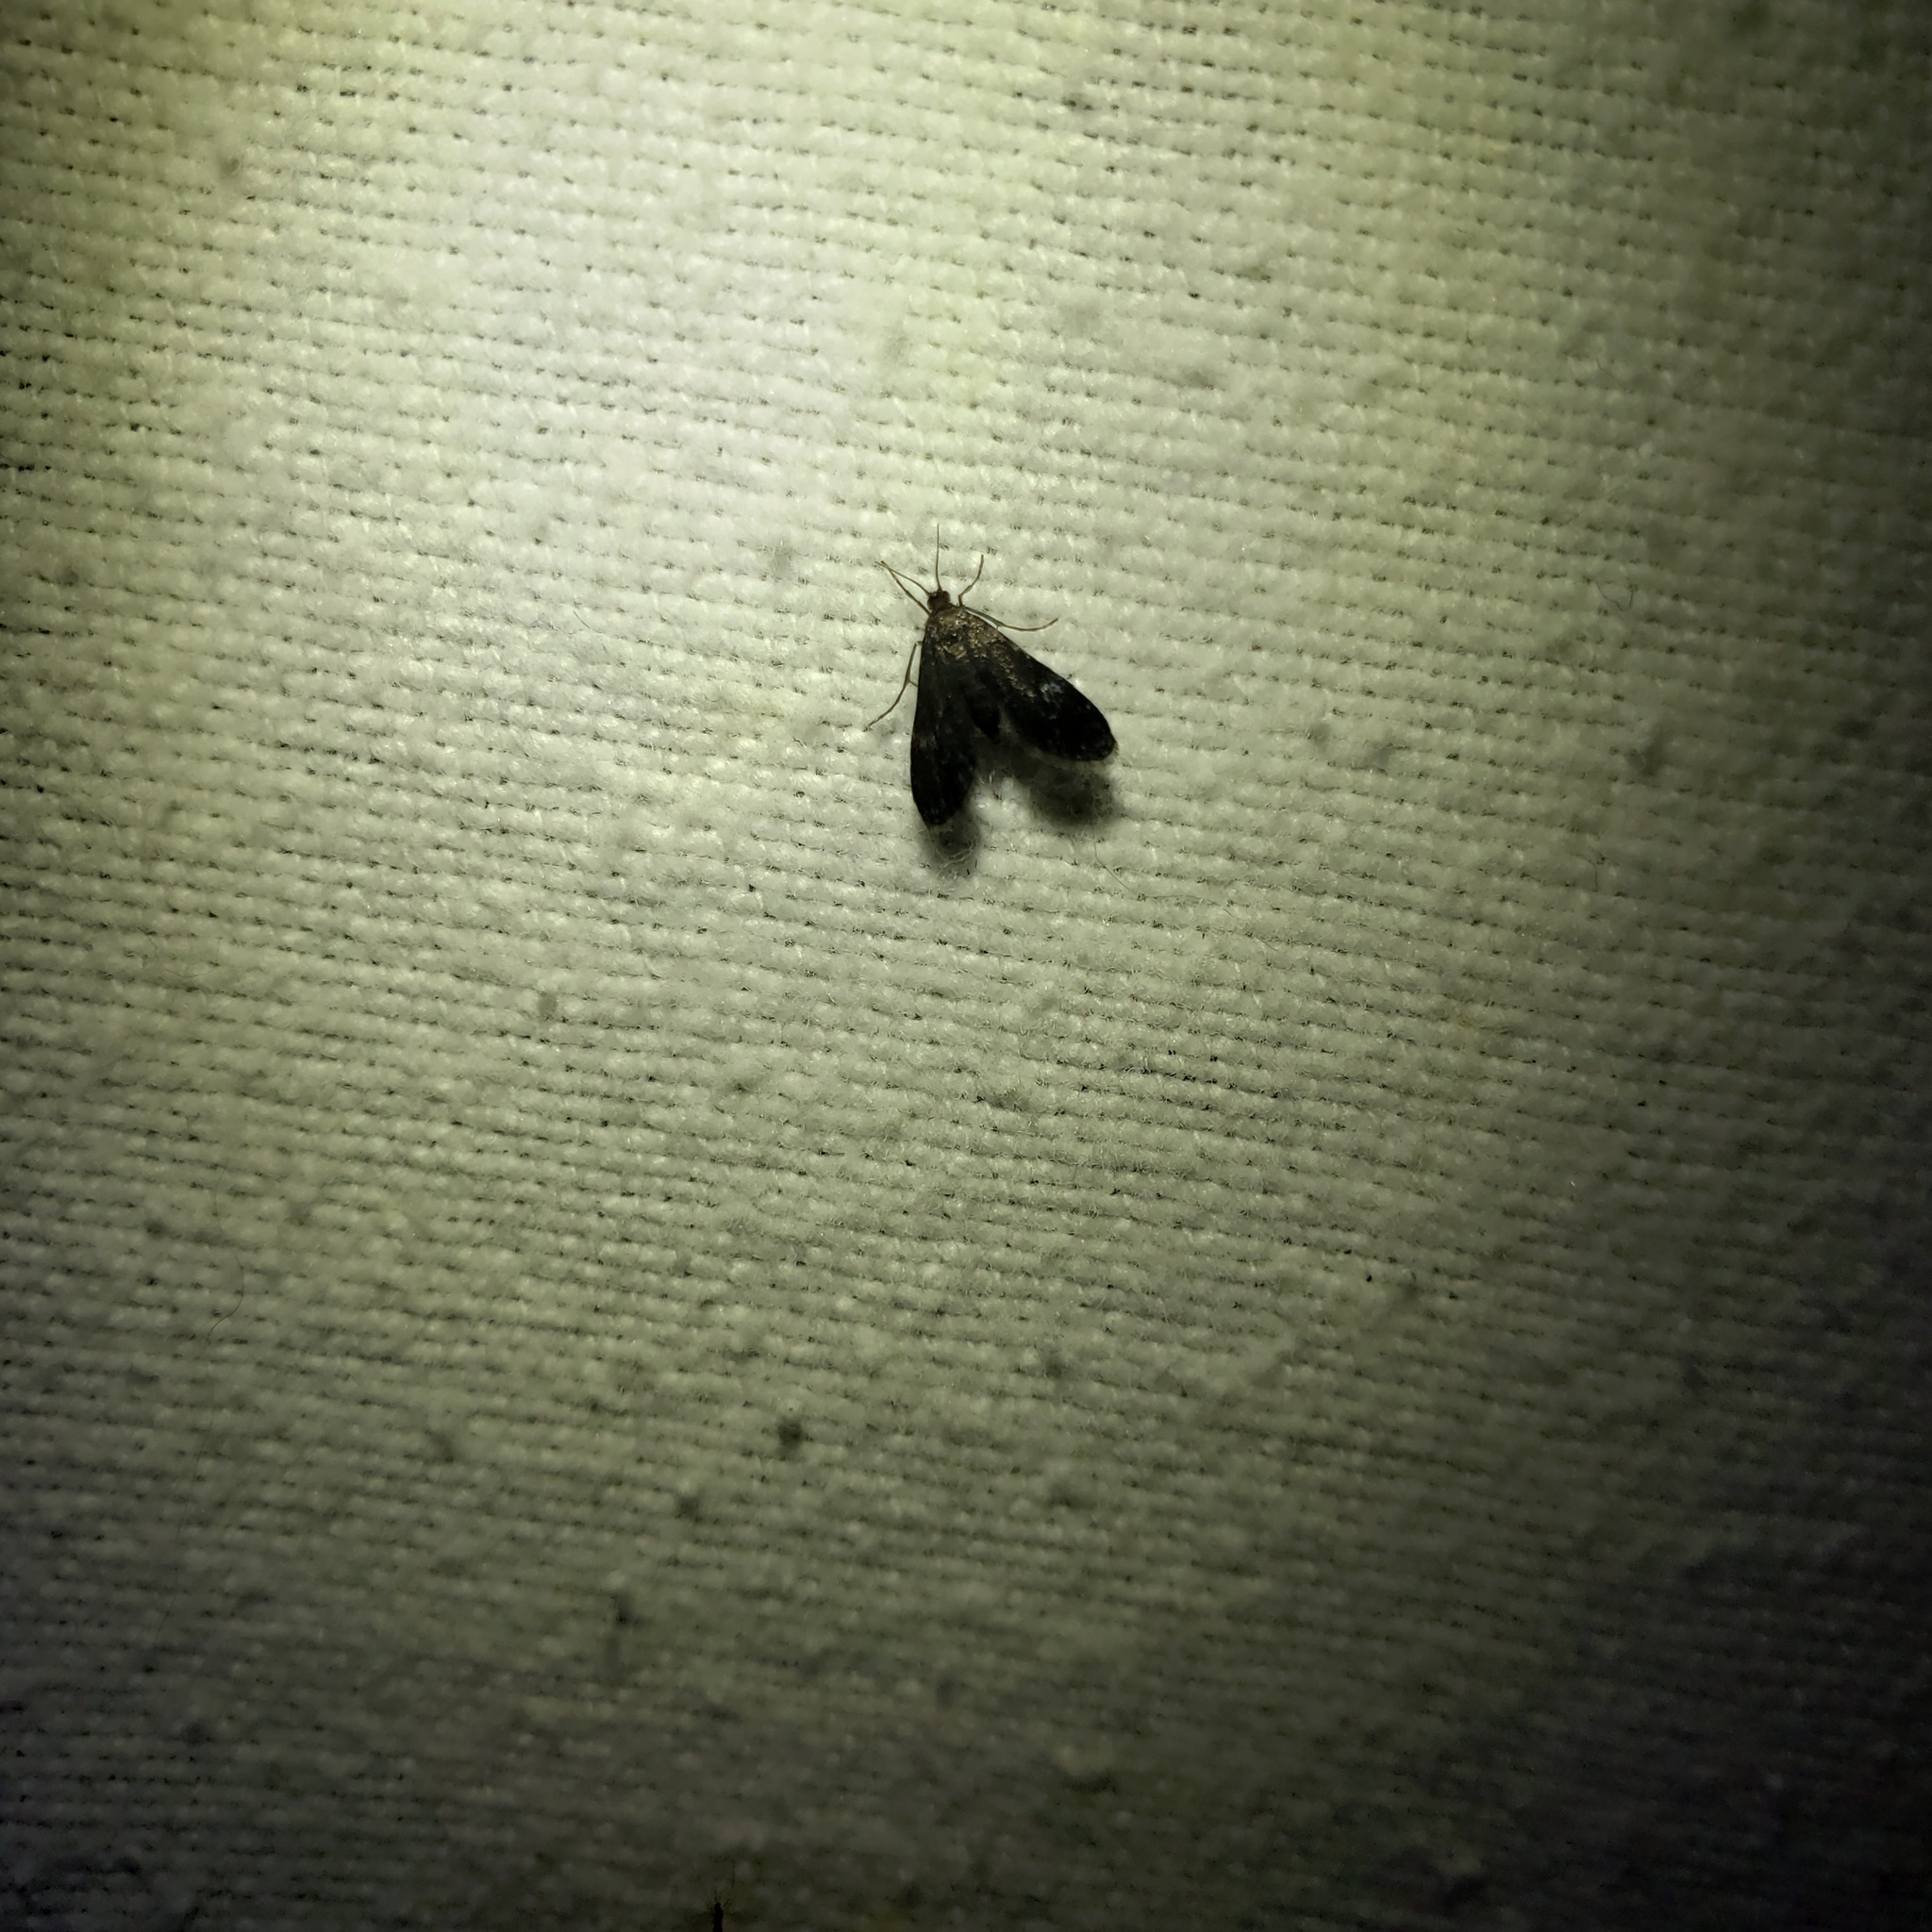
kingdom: Animalia
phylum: Arthropoda
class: Insecta
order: Lepidoptera
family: Crambidae
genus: Elophila
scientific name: Elophila tinealis
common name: Black duckweed moth
